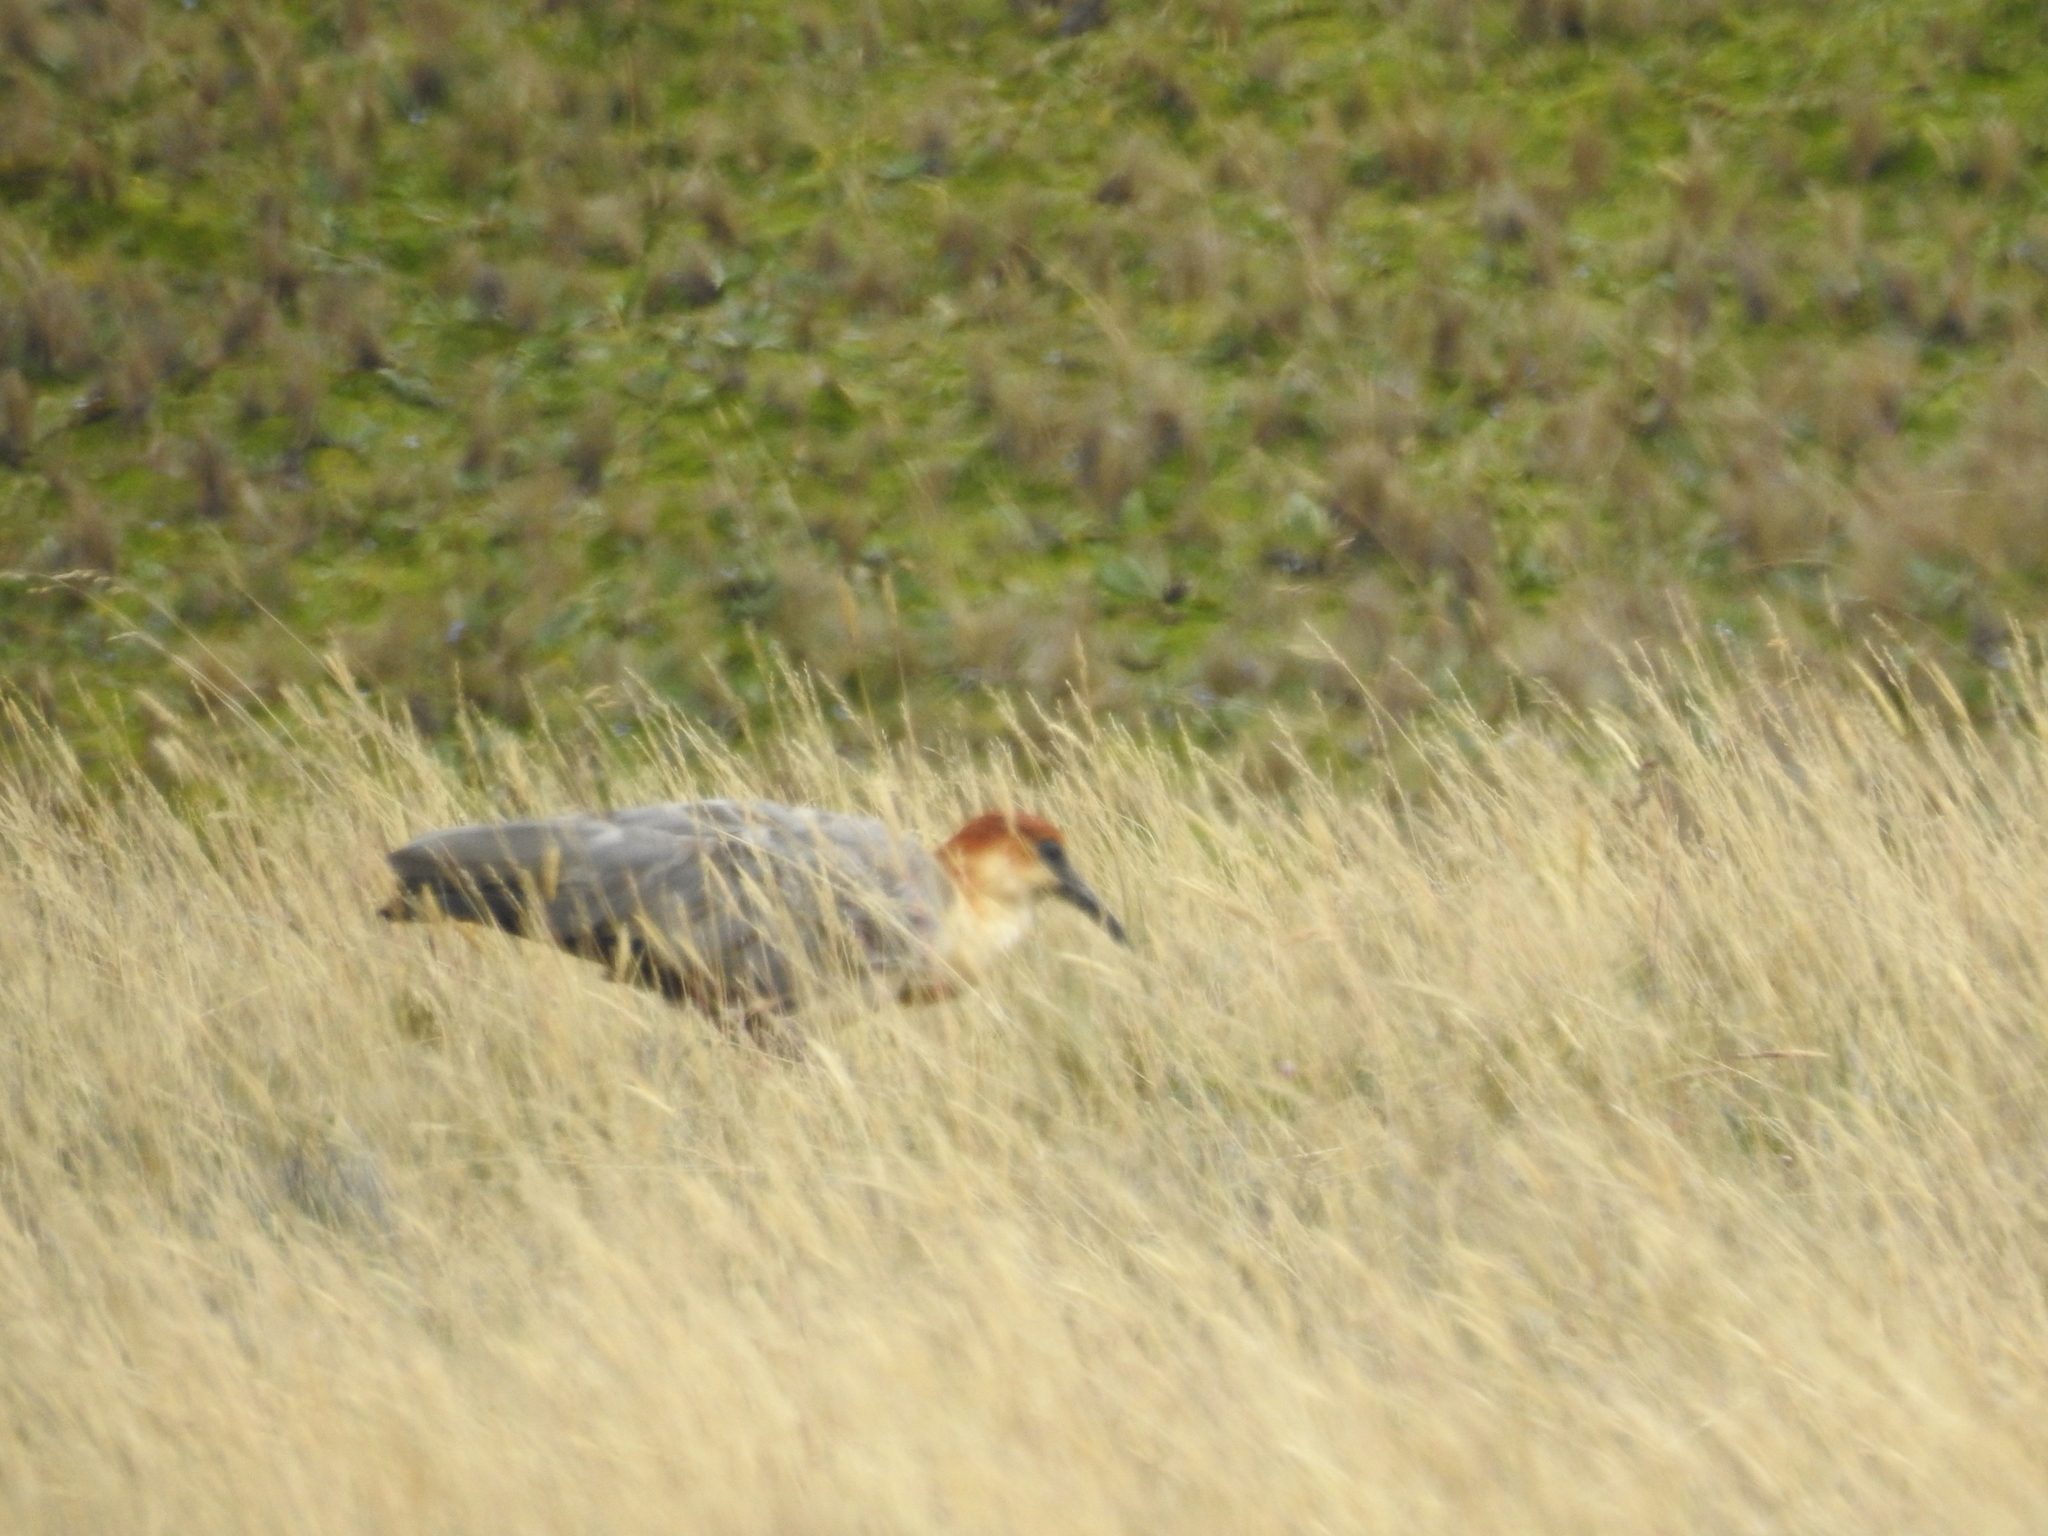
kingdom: Animalia
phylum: Chordata
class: Aves
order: Pelecaniformes
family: Threskiornithidae
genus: Theristicus
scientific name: Theristicus melanopis
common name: Black-faced ibis
